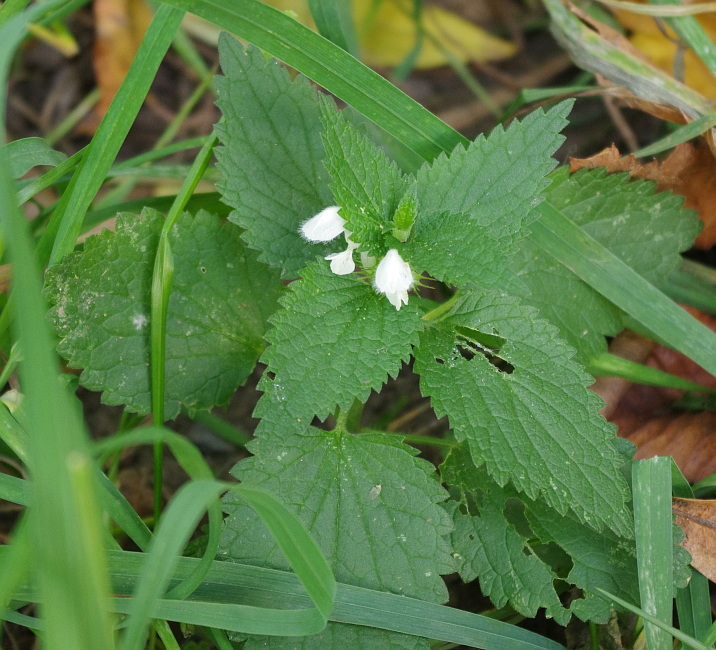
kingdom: Plantae
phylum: Tracheophyta
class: Magnoliopsida
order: Lamiales
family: Lamiaceae
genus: Lamium
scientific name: Lamium album
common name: White dead-nettle
